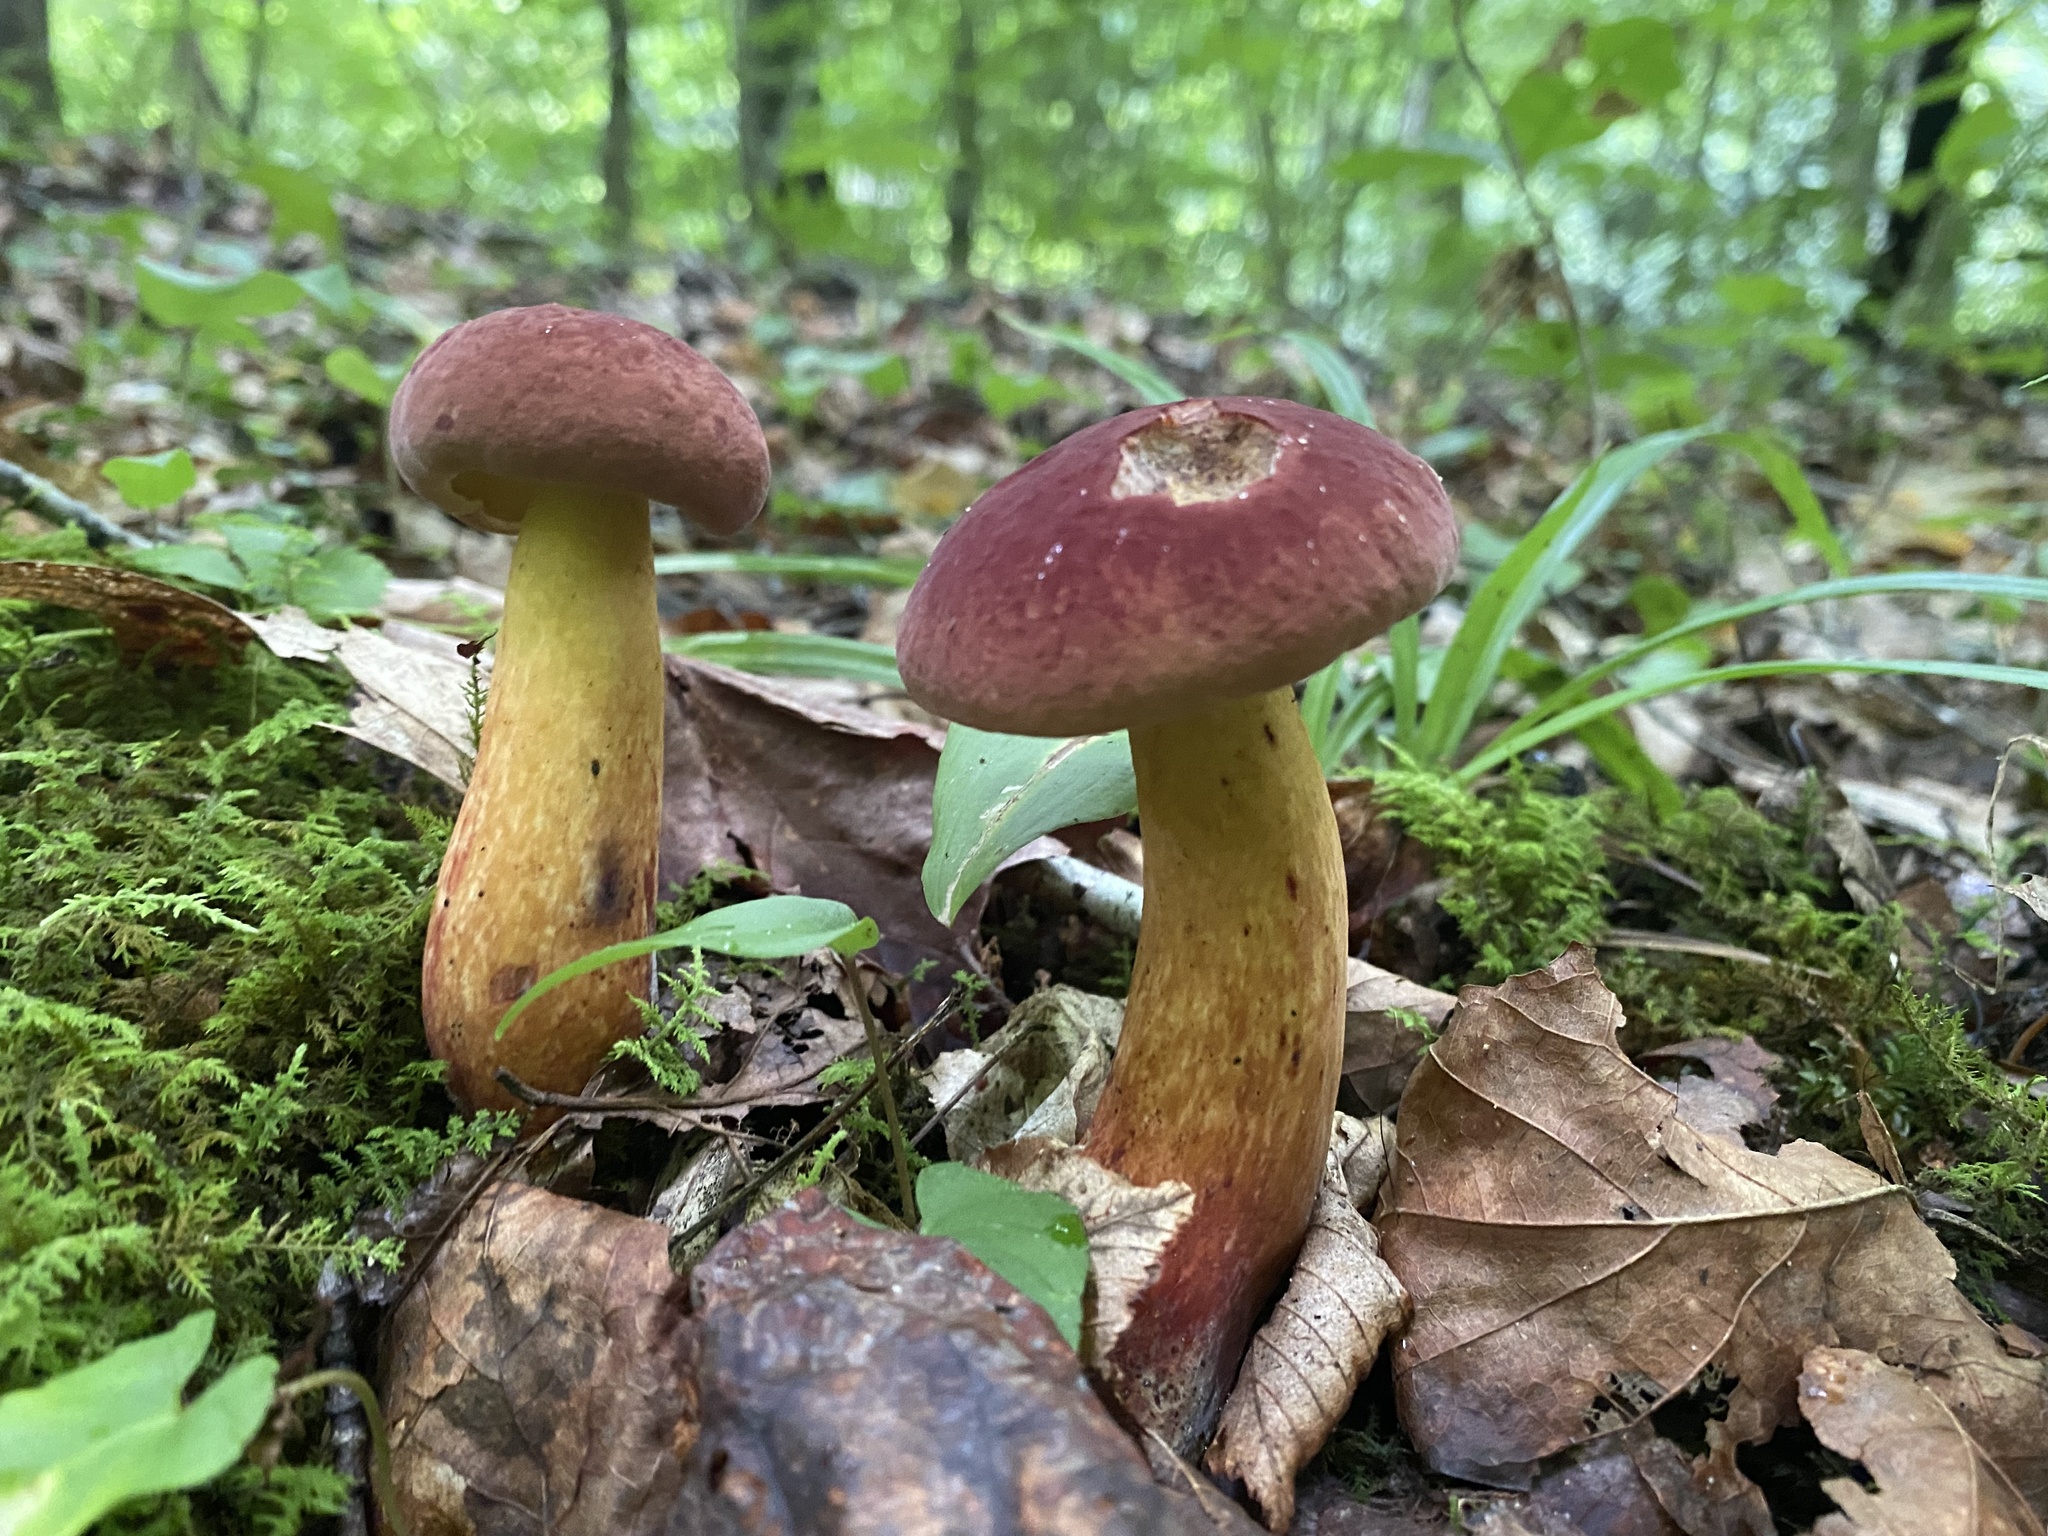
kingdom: Fungi
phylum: Basidiomycota
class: Agaricomycetes
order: Boletales
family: Boletaceae
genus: Baorangia
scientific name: Baorangia bicolor
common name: Two-colored bolete
